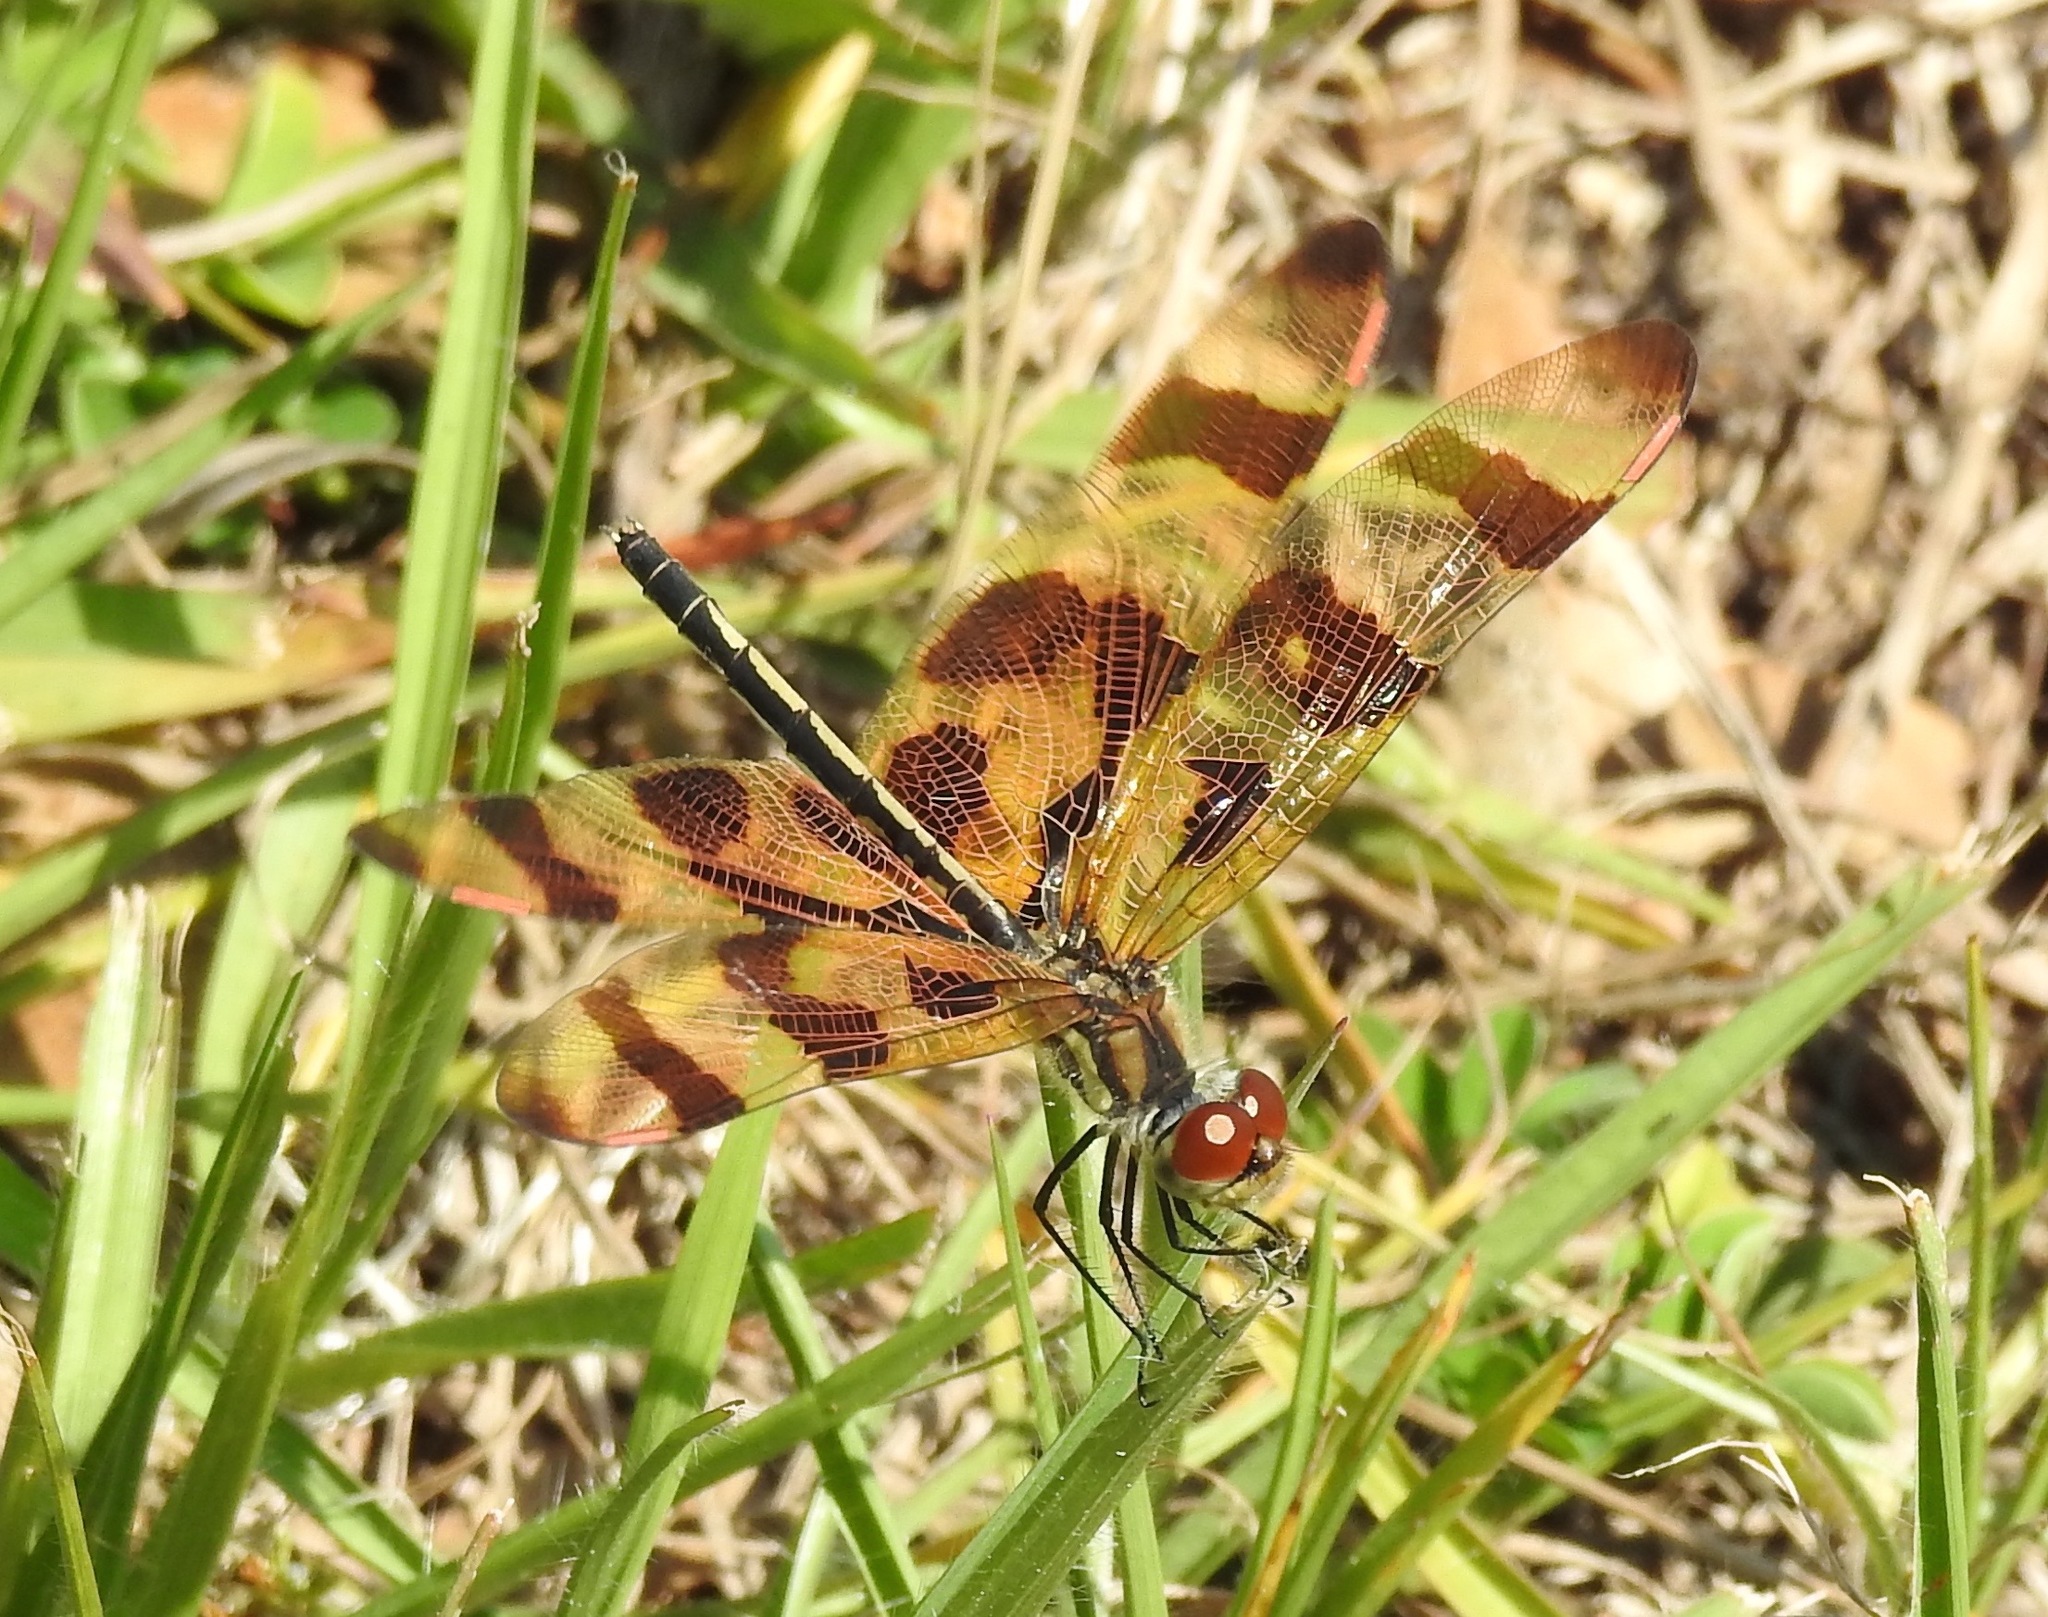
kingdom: Animalia
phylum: Arthropoda
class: Insecta
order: Odonata
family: Libellulidae
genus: Celithemis
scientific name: Celithemis eponina
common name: Halloween pennant
